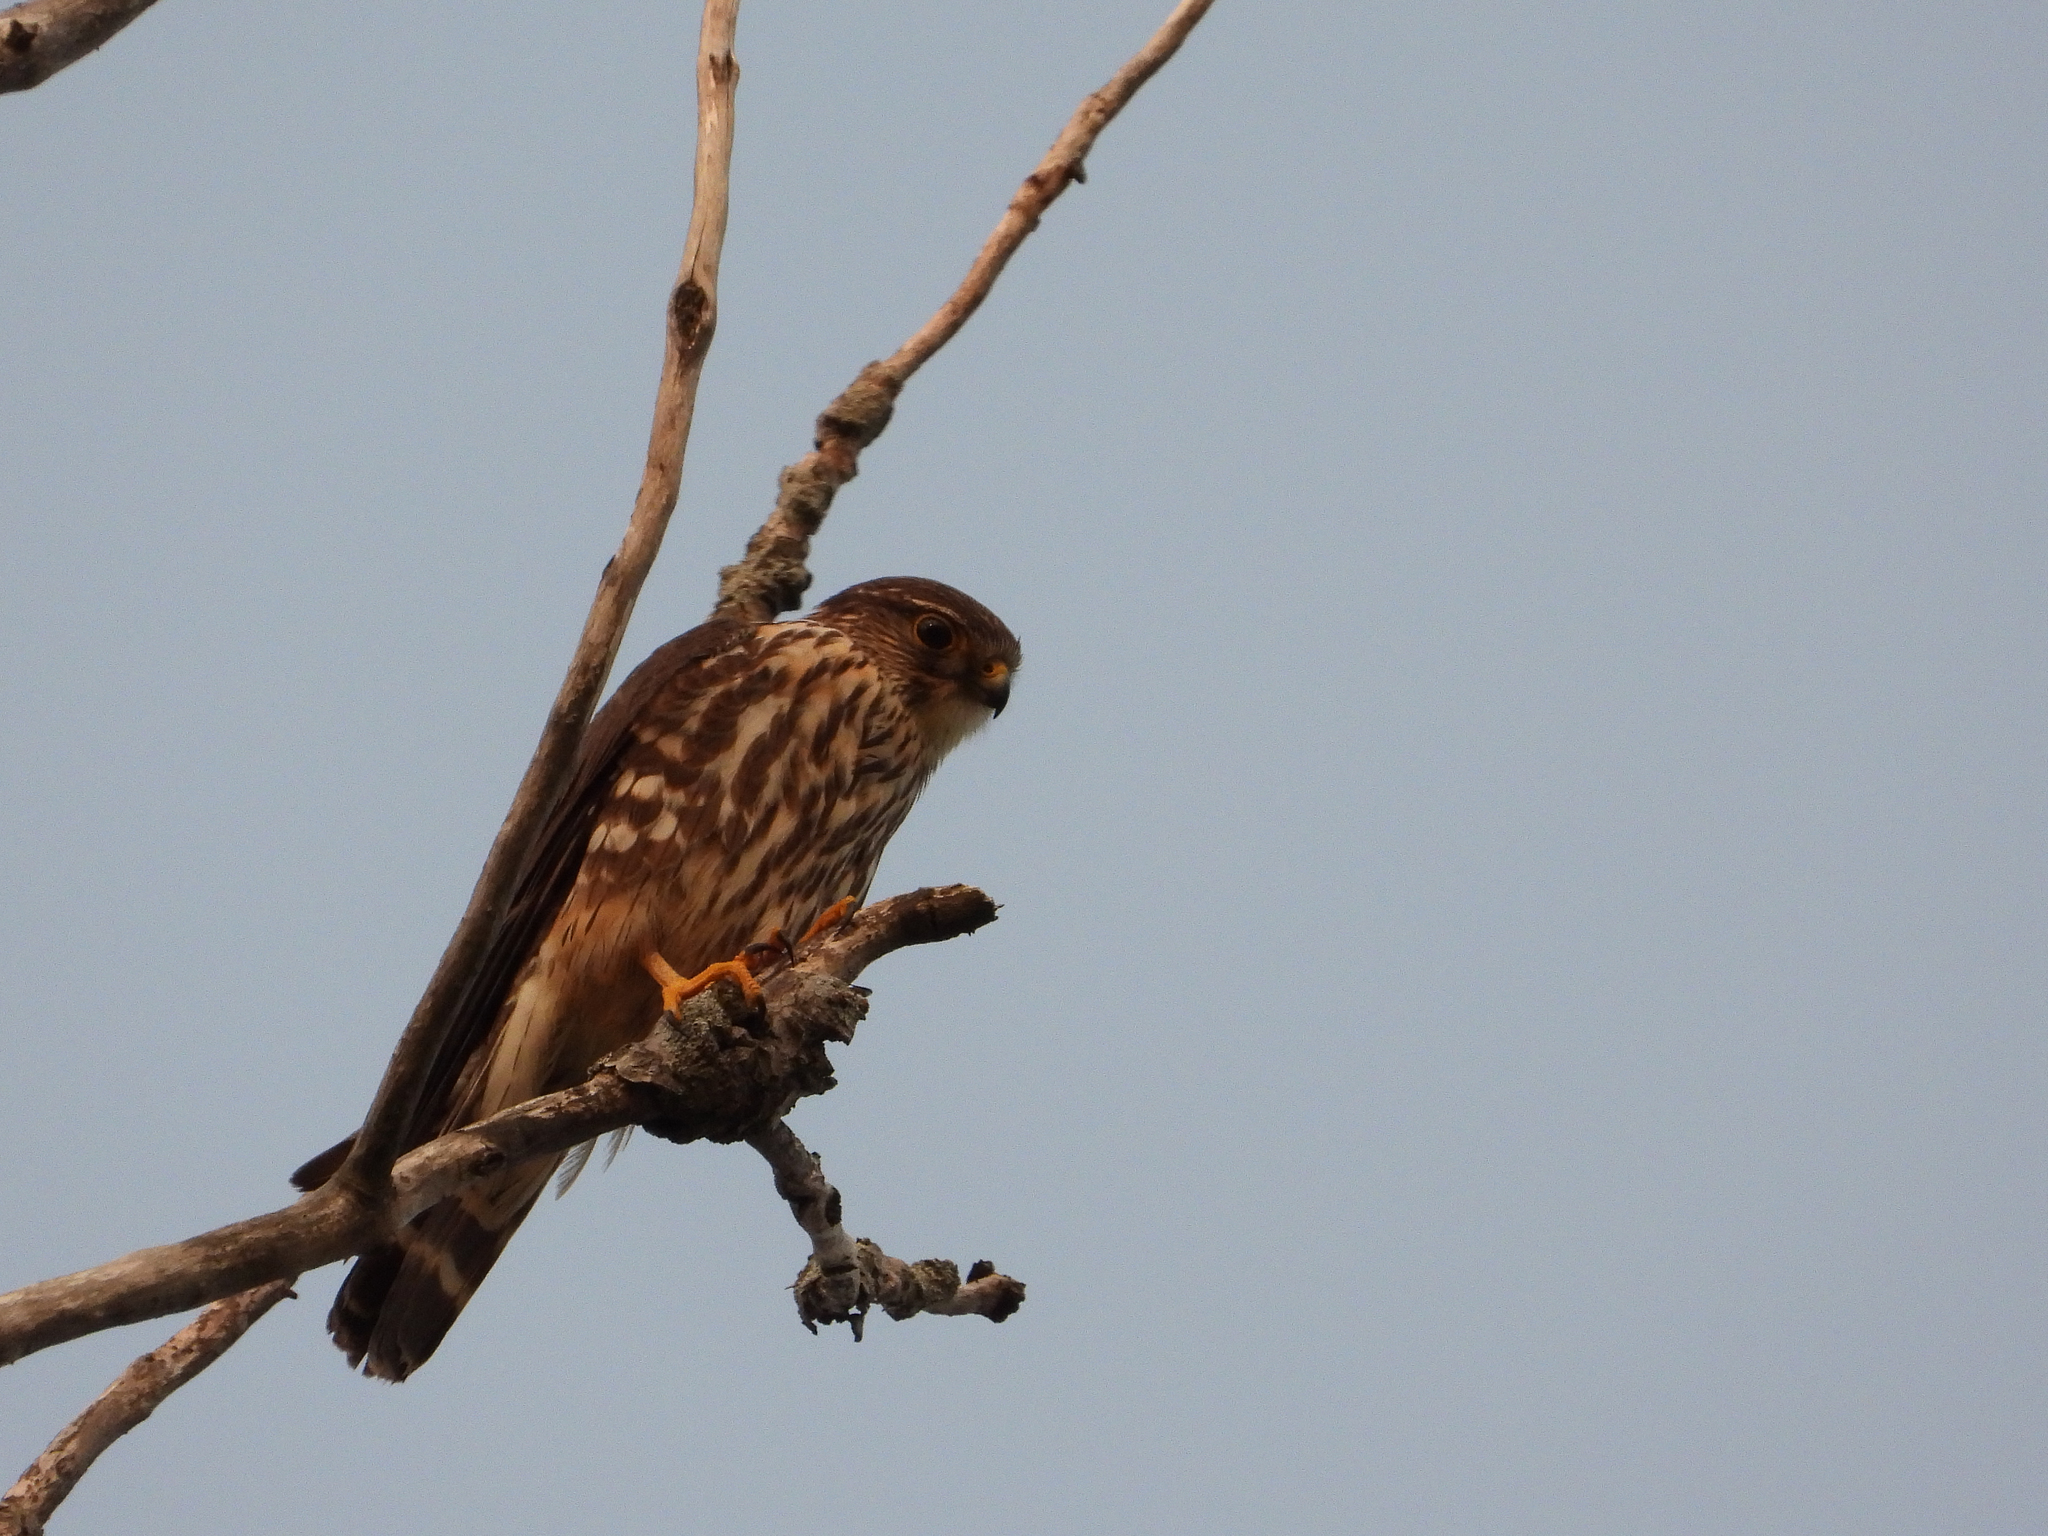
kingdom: Animalia
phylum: Chordata
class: Aves
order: Falconiformes
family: Falconidae
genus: Falco
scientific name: Falco columbarius
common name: Merlin
